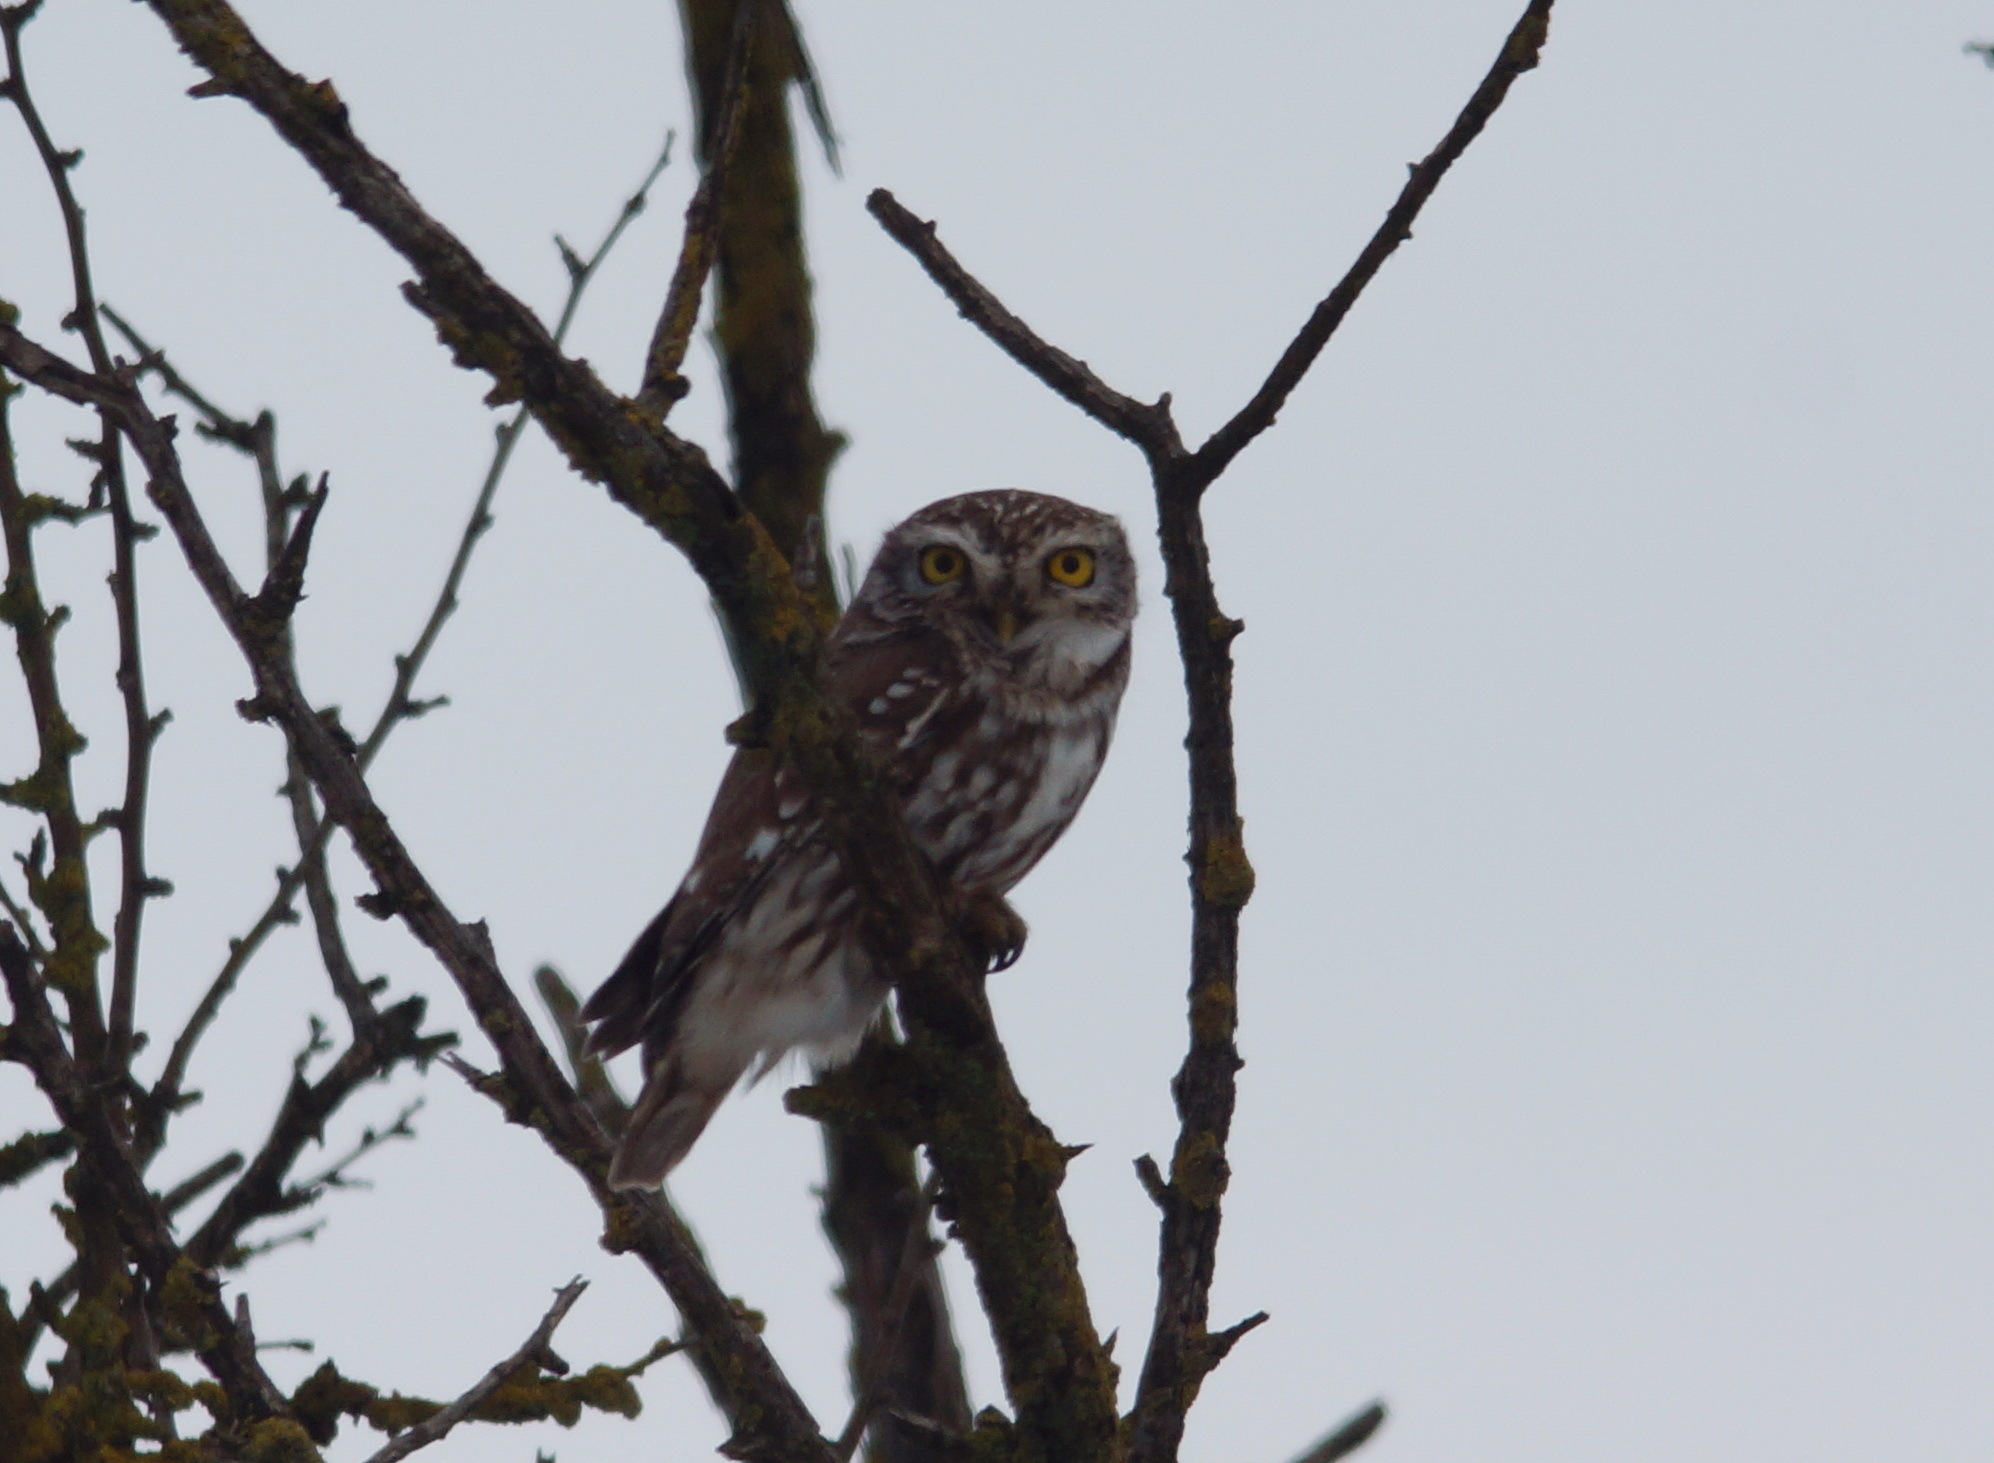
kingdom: Animalia
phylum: Chordata
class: Aves
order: Strigiformes
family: Strigidae
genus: Athene
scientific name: Athene noctua
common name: Little owl
